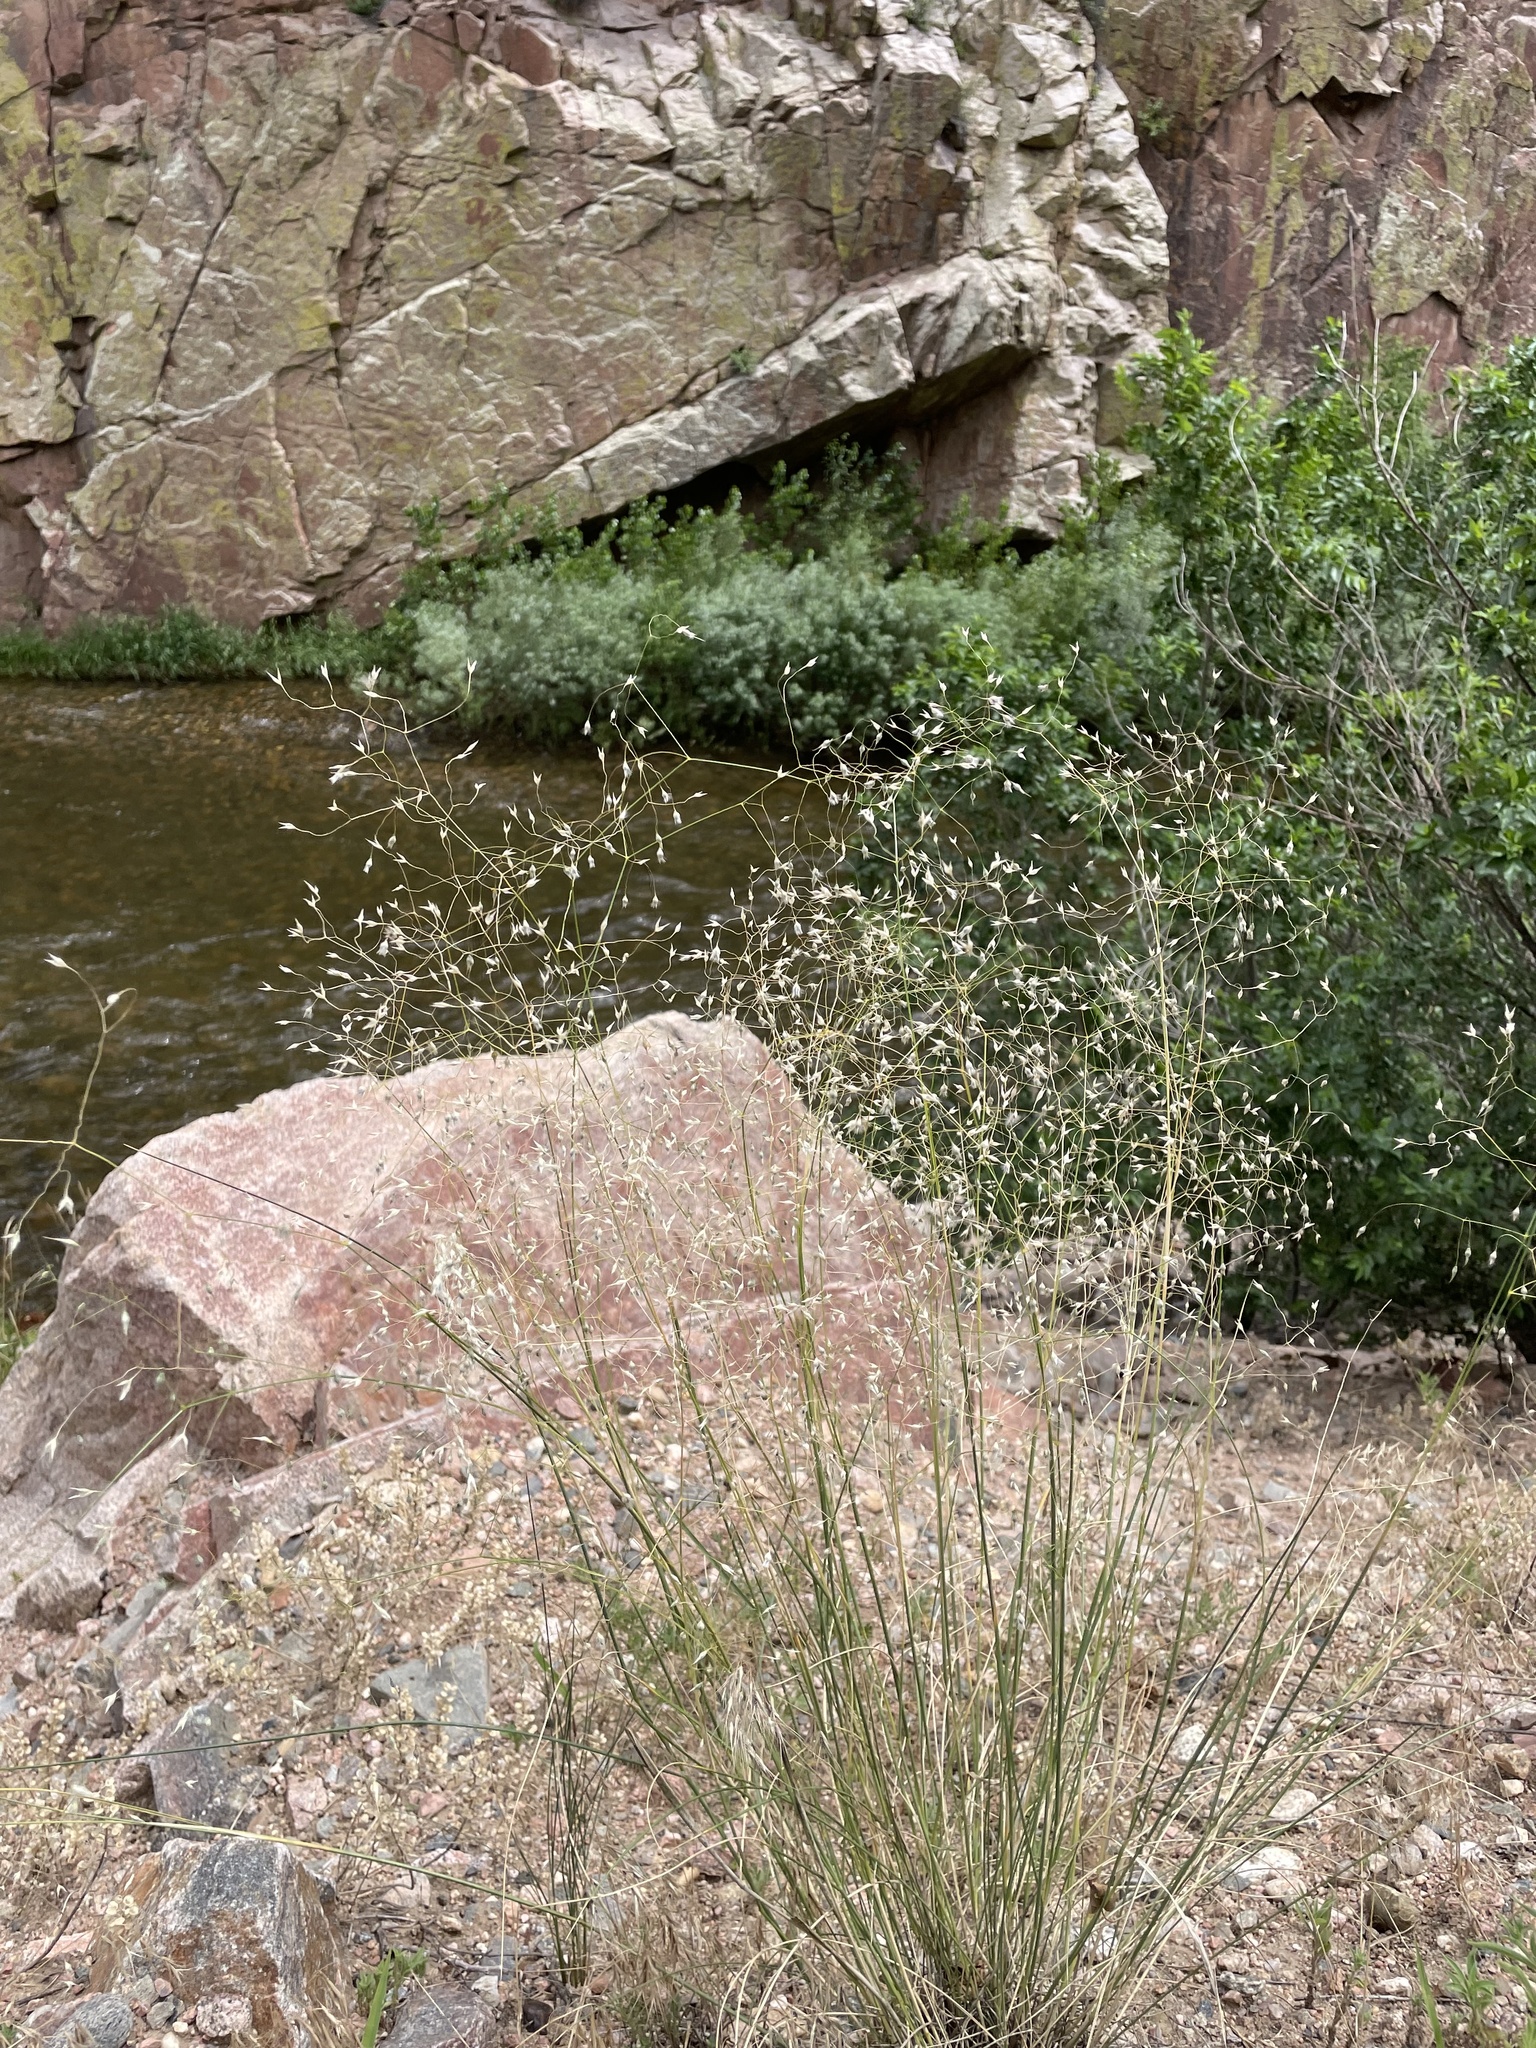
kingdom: Plantae
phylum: Tracheophyta
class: Liliopsida
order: Poales
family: Poaceae
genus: Eriocoma
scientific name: Eriocoma hymenoides
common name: Indian mountain ricegrass
